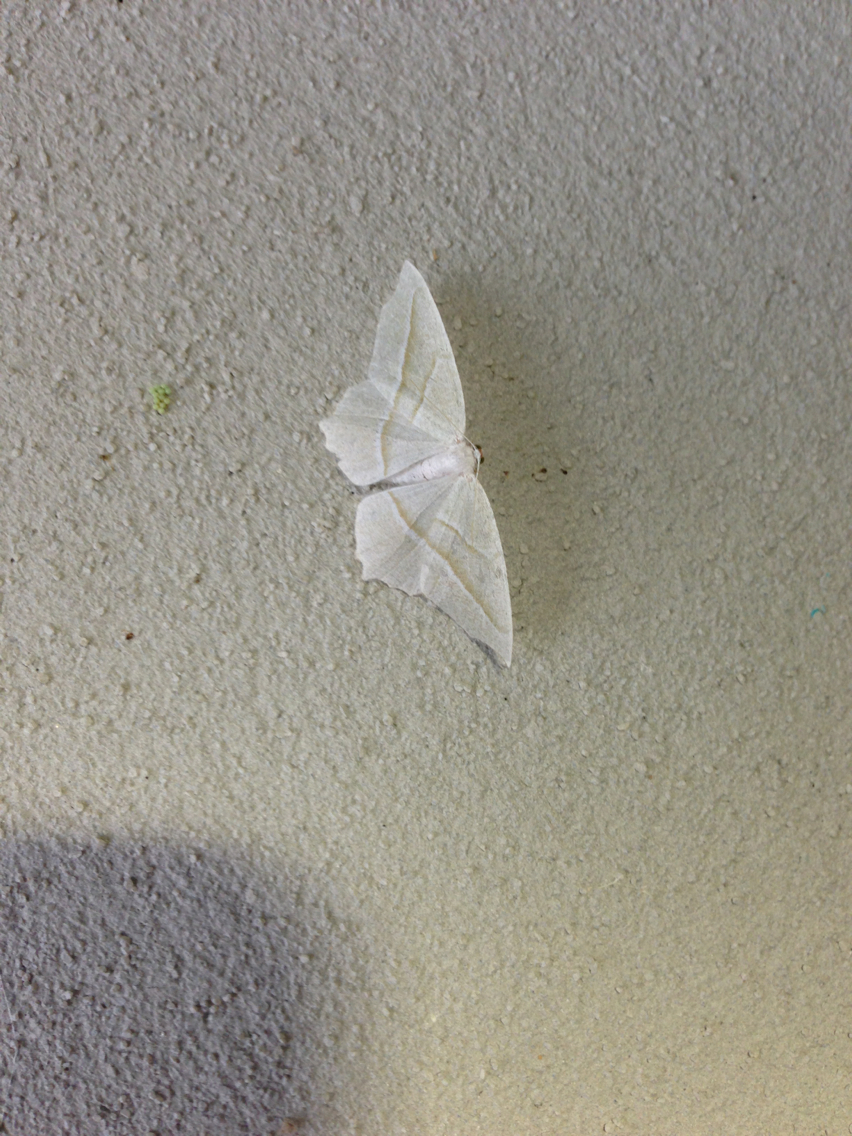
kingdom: Animalia
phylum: Arthropoda
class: Insecta
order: Lepidoptera
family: Geometridae
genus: Campaea
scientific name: Campaea perlata
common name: Fringed looper
